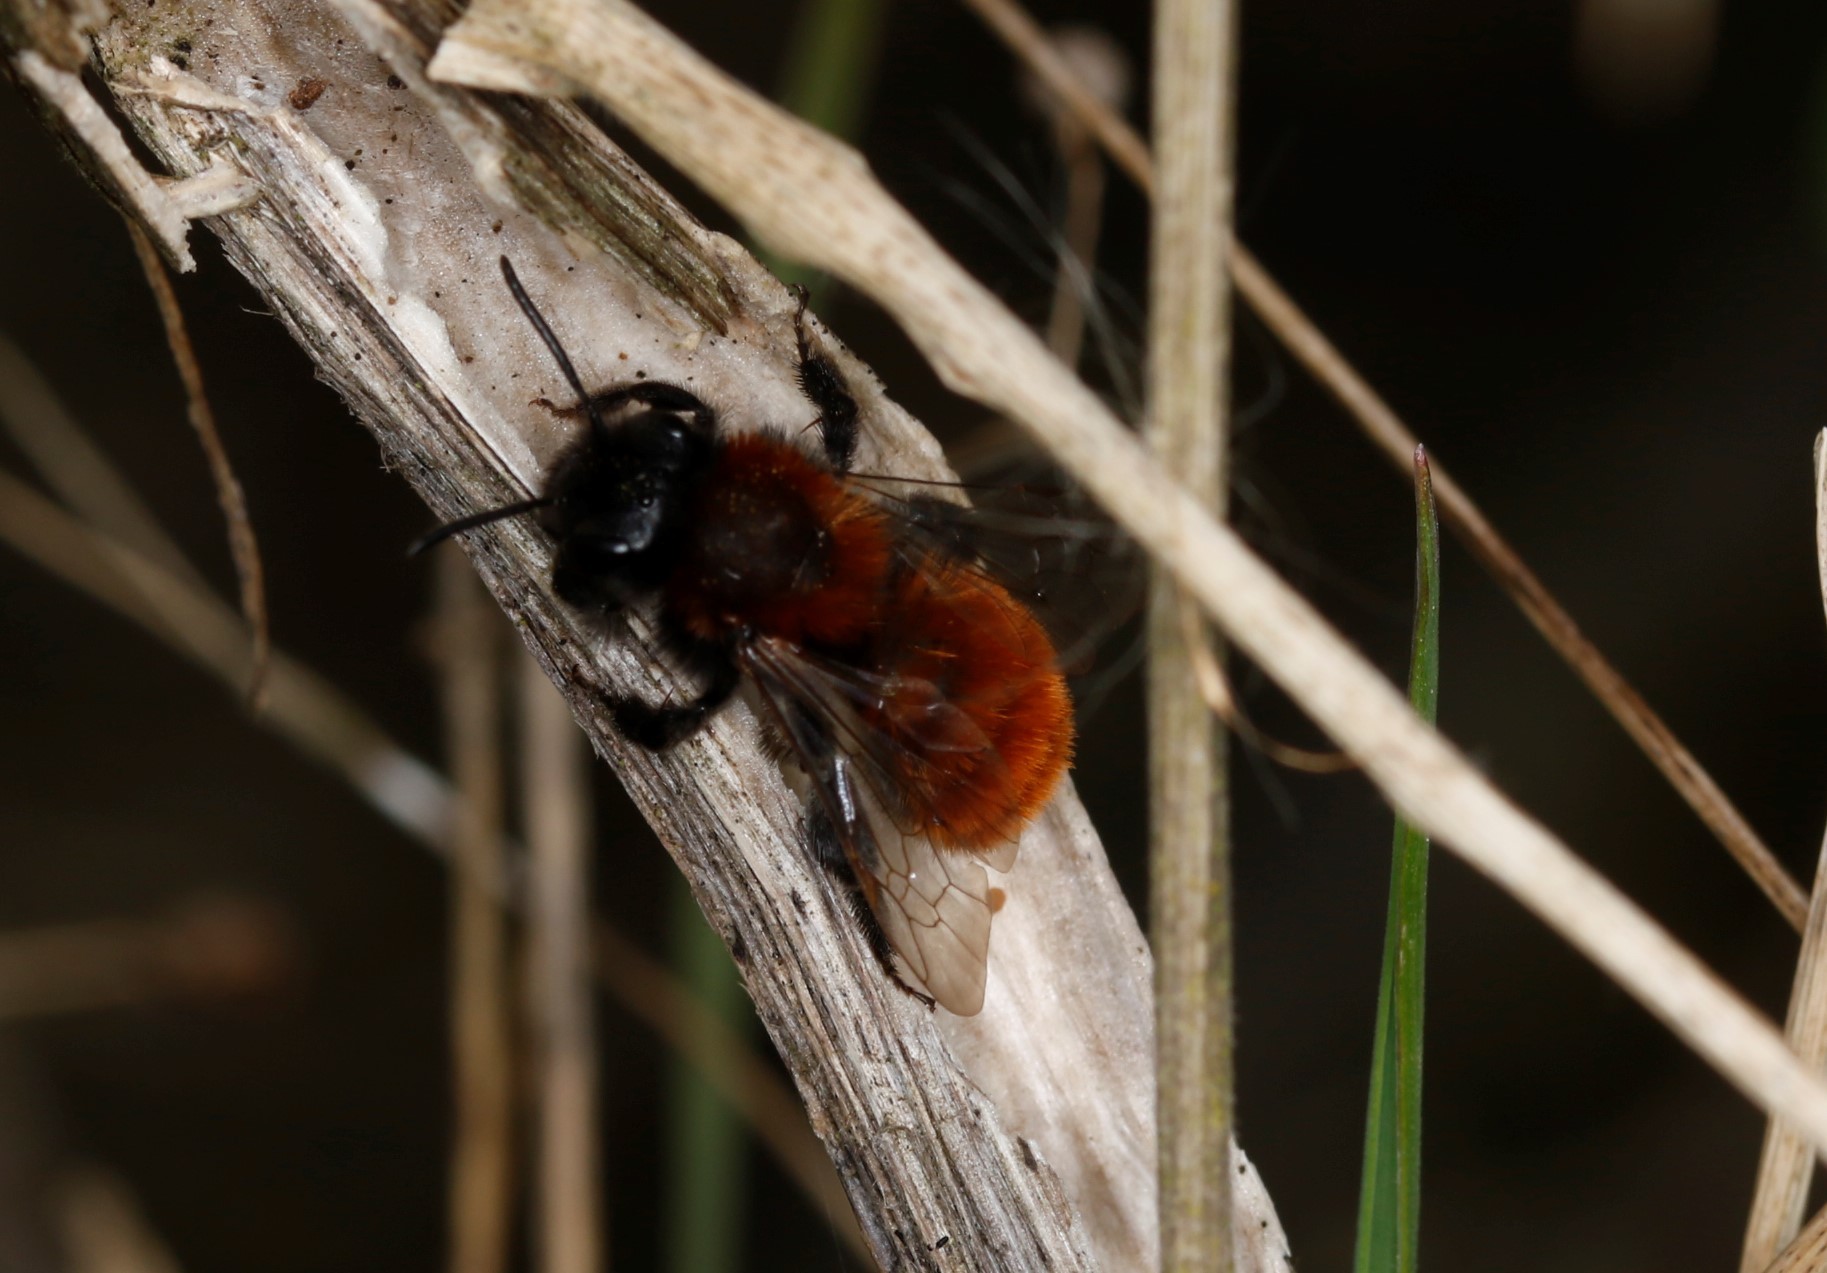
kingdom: Animalia
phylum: Arthropoda
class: Insecta
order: Hymenoptera
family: Andrenidae
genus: Andrena
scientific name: Andrena fulva
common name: Tawny mining bee
